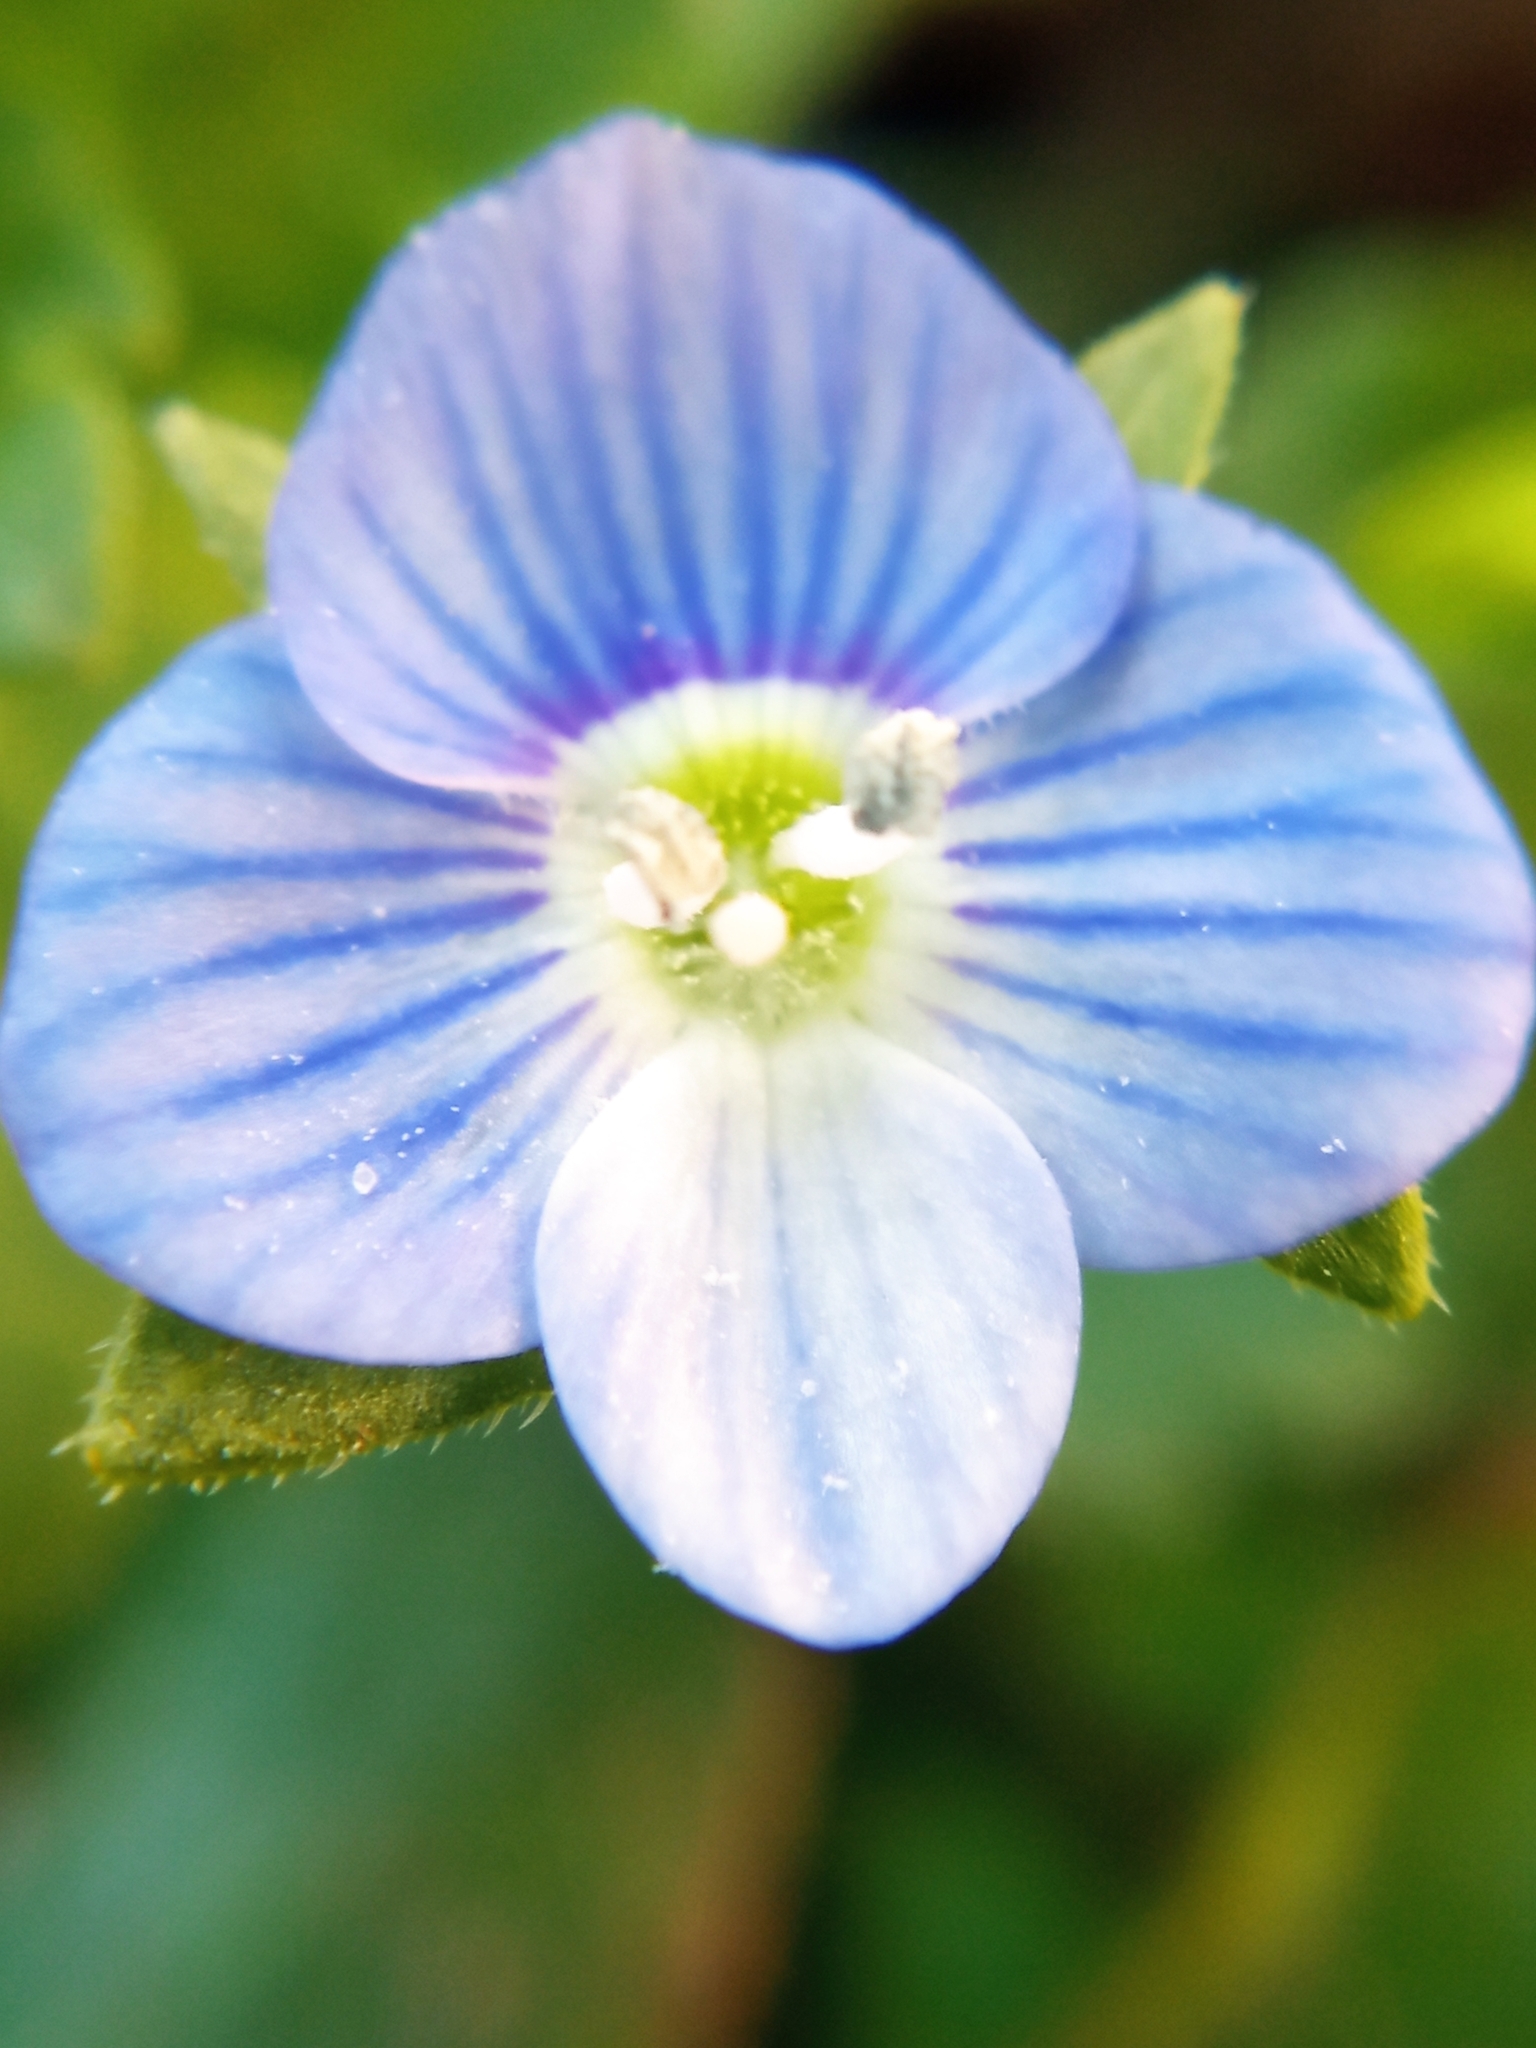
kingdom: Plantae
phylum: Tracheophyta
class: Magnoliopsida
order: Lamiales
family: Plantaginaceae
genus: Veronica
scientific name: Veronica persica
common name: Common field-speedwell
